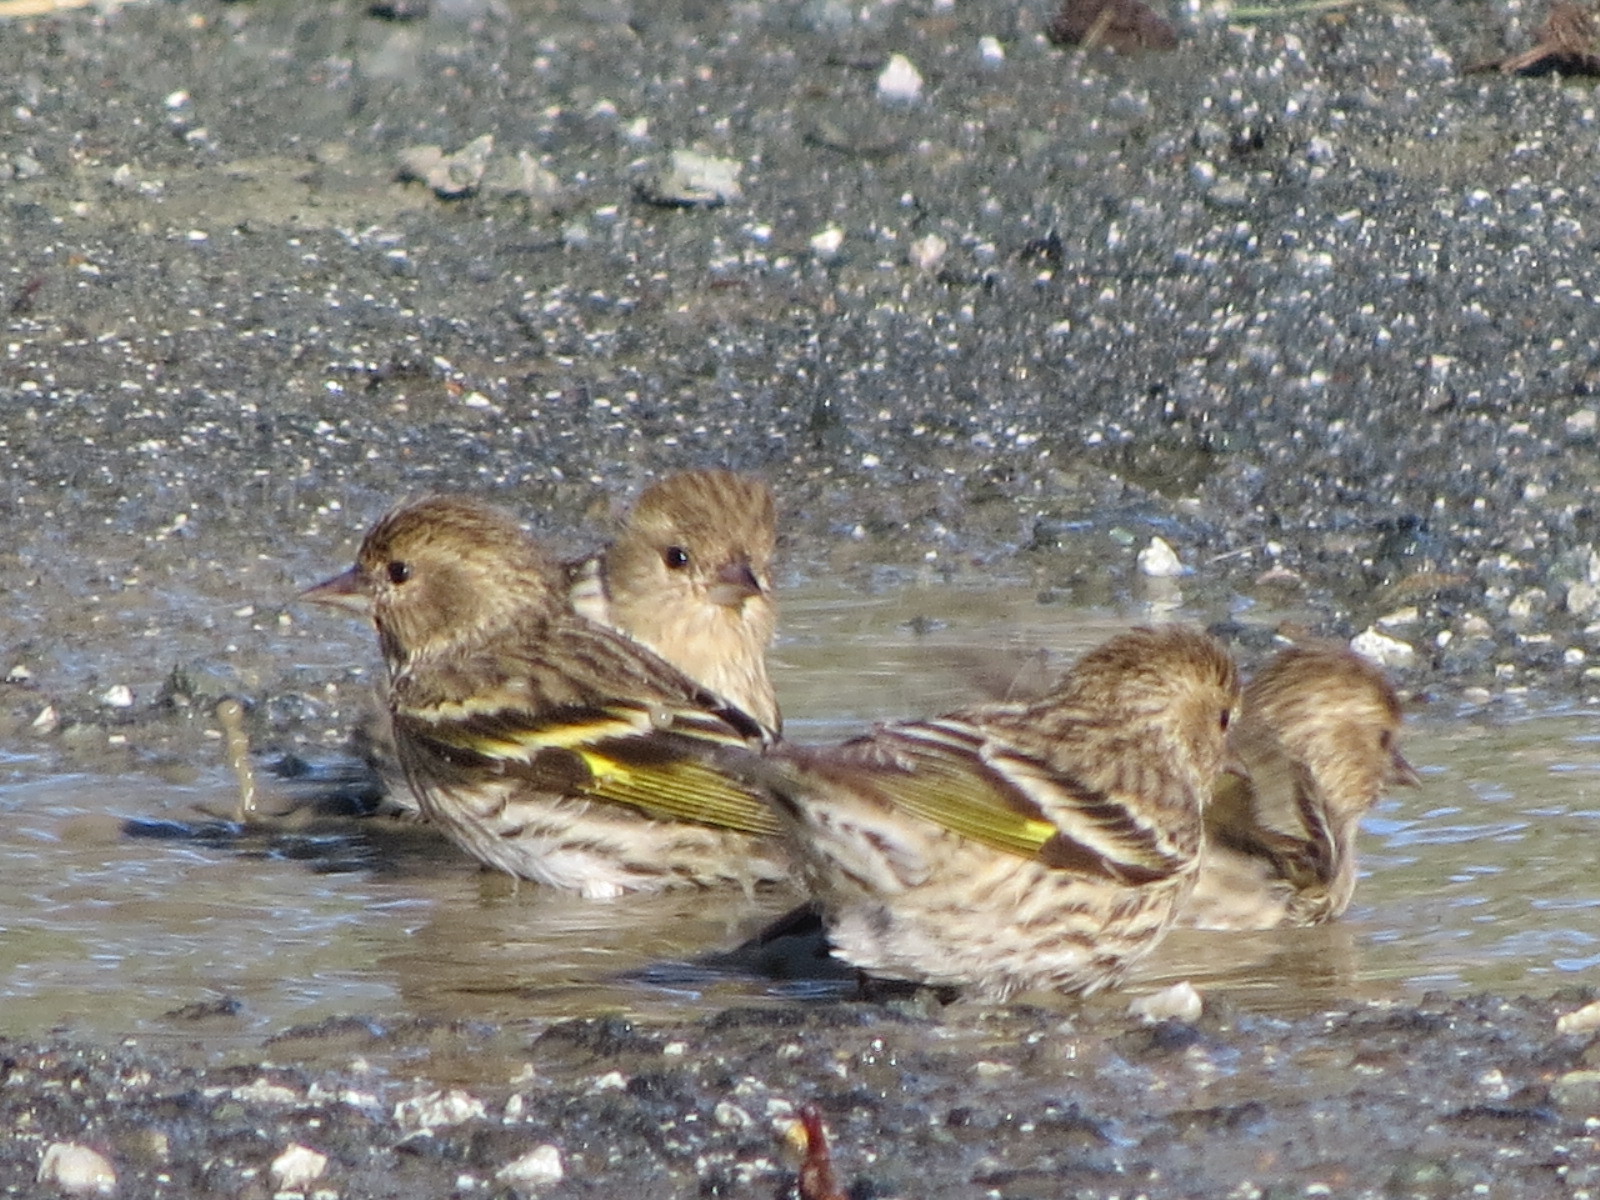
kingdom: Animalia
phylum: Chordata
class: Aves
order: Passeriformes
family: Fringillidae
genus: Spinus
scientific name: Spinus pinus
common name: Pine siskin
